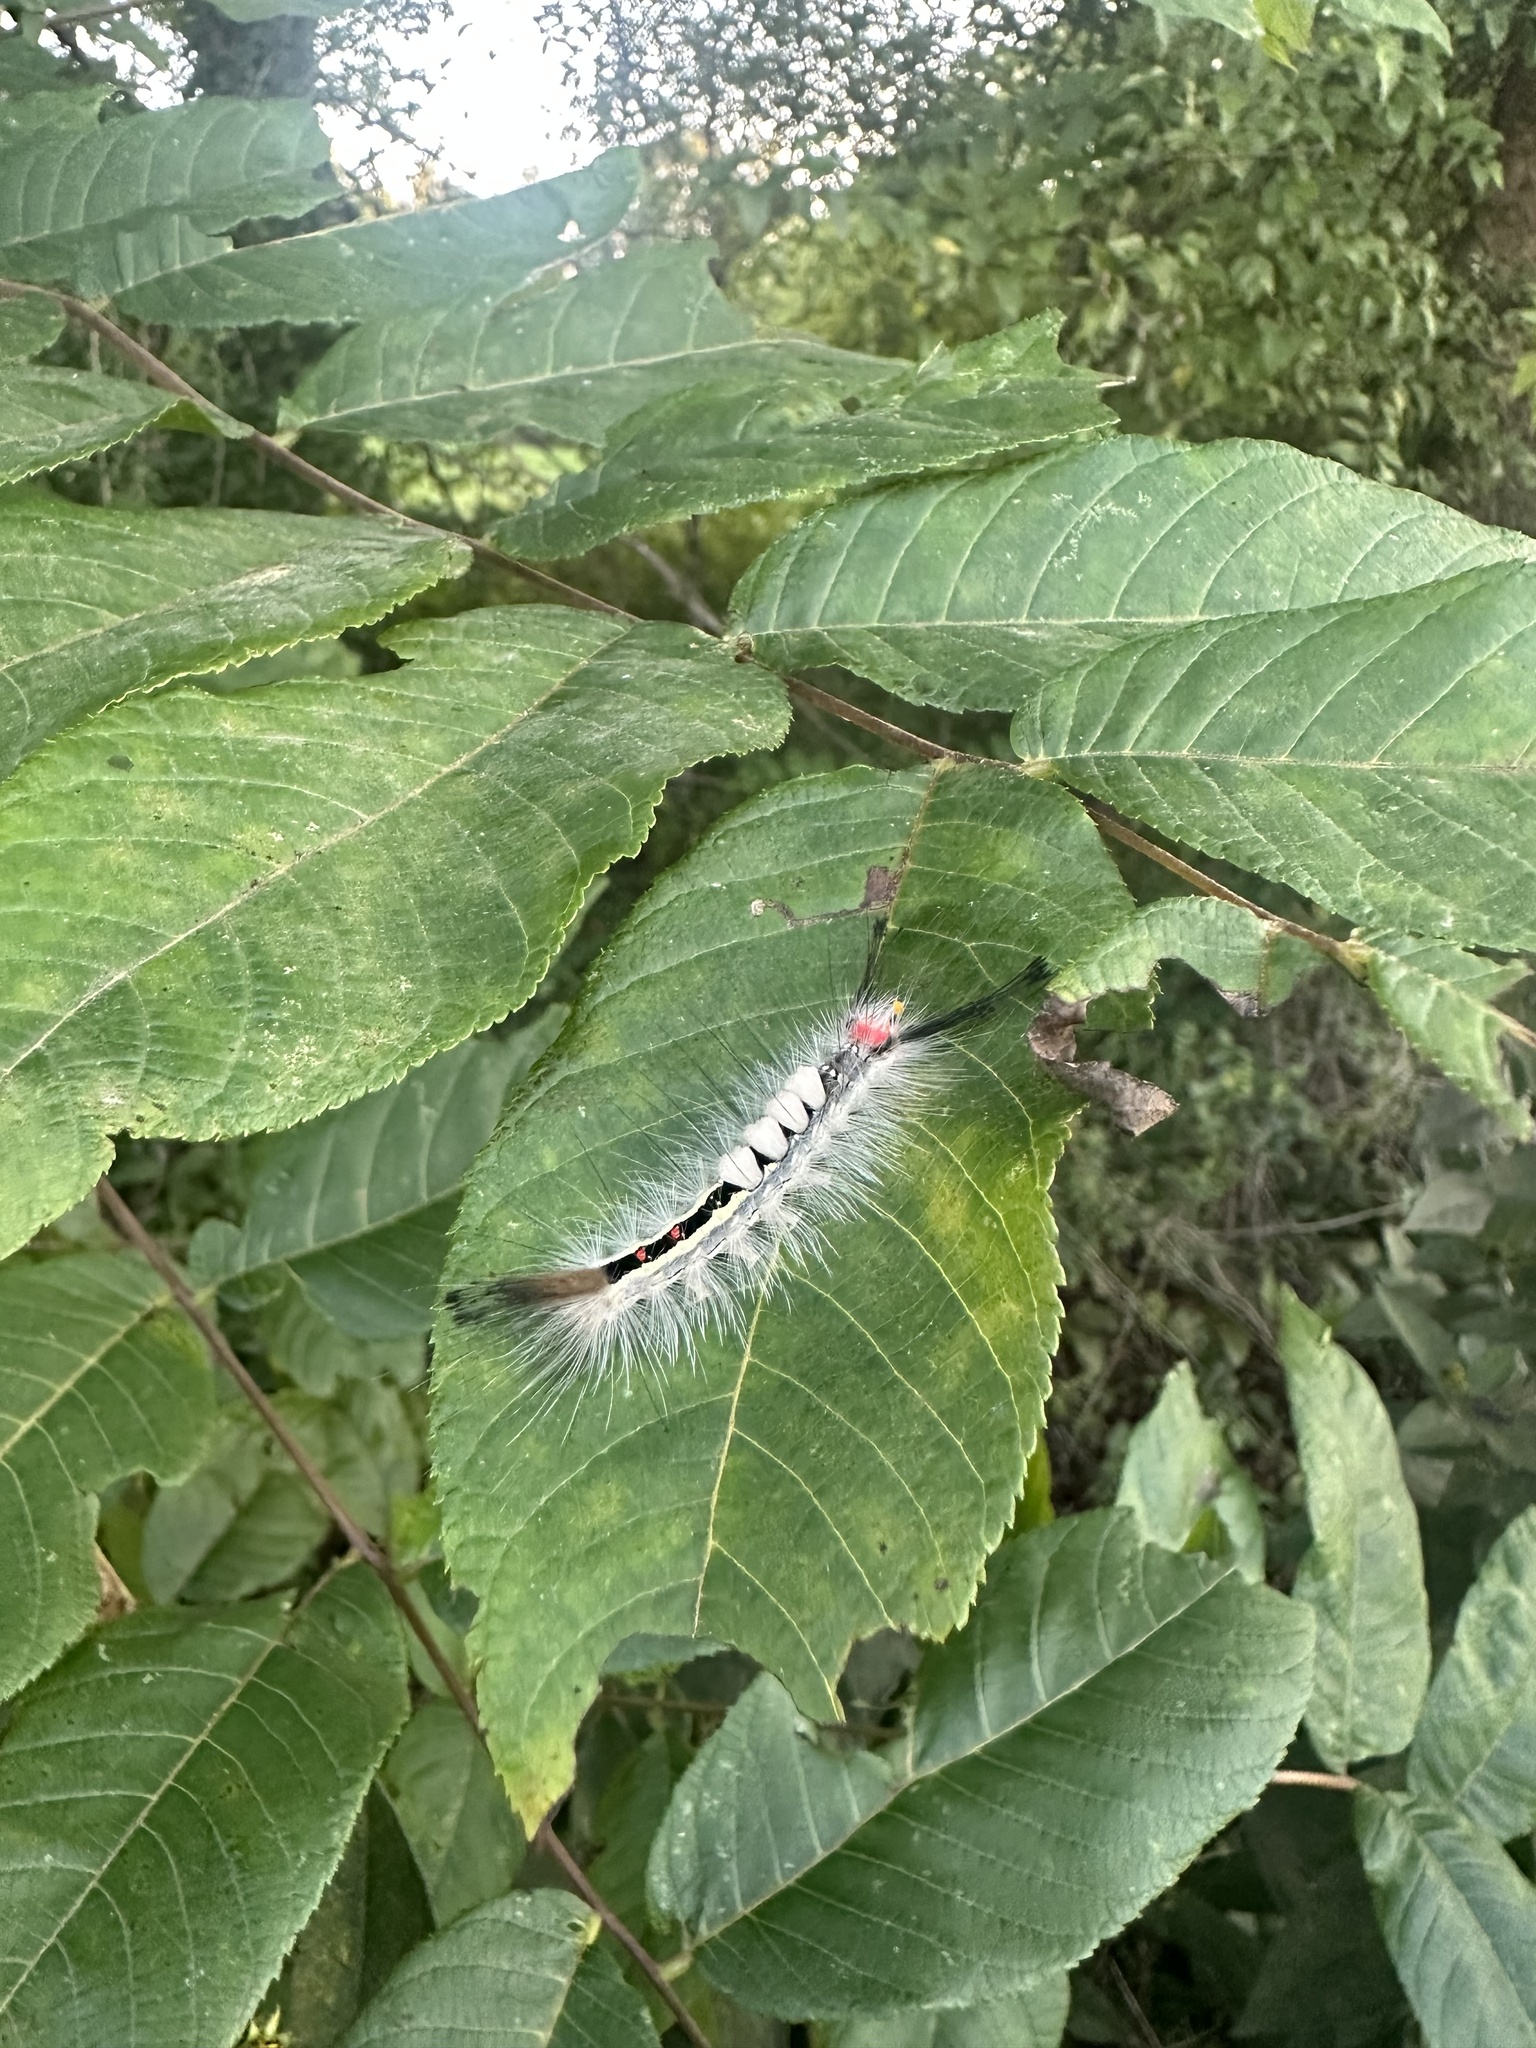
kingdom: Animalia
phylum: Arthropoda
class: Insecta
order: Lepidoptera
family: Erebidae
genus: Orgyia
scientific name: Orgyia leucostigma
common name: White-marked tussock moth
